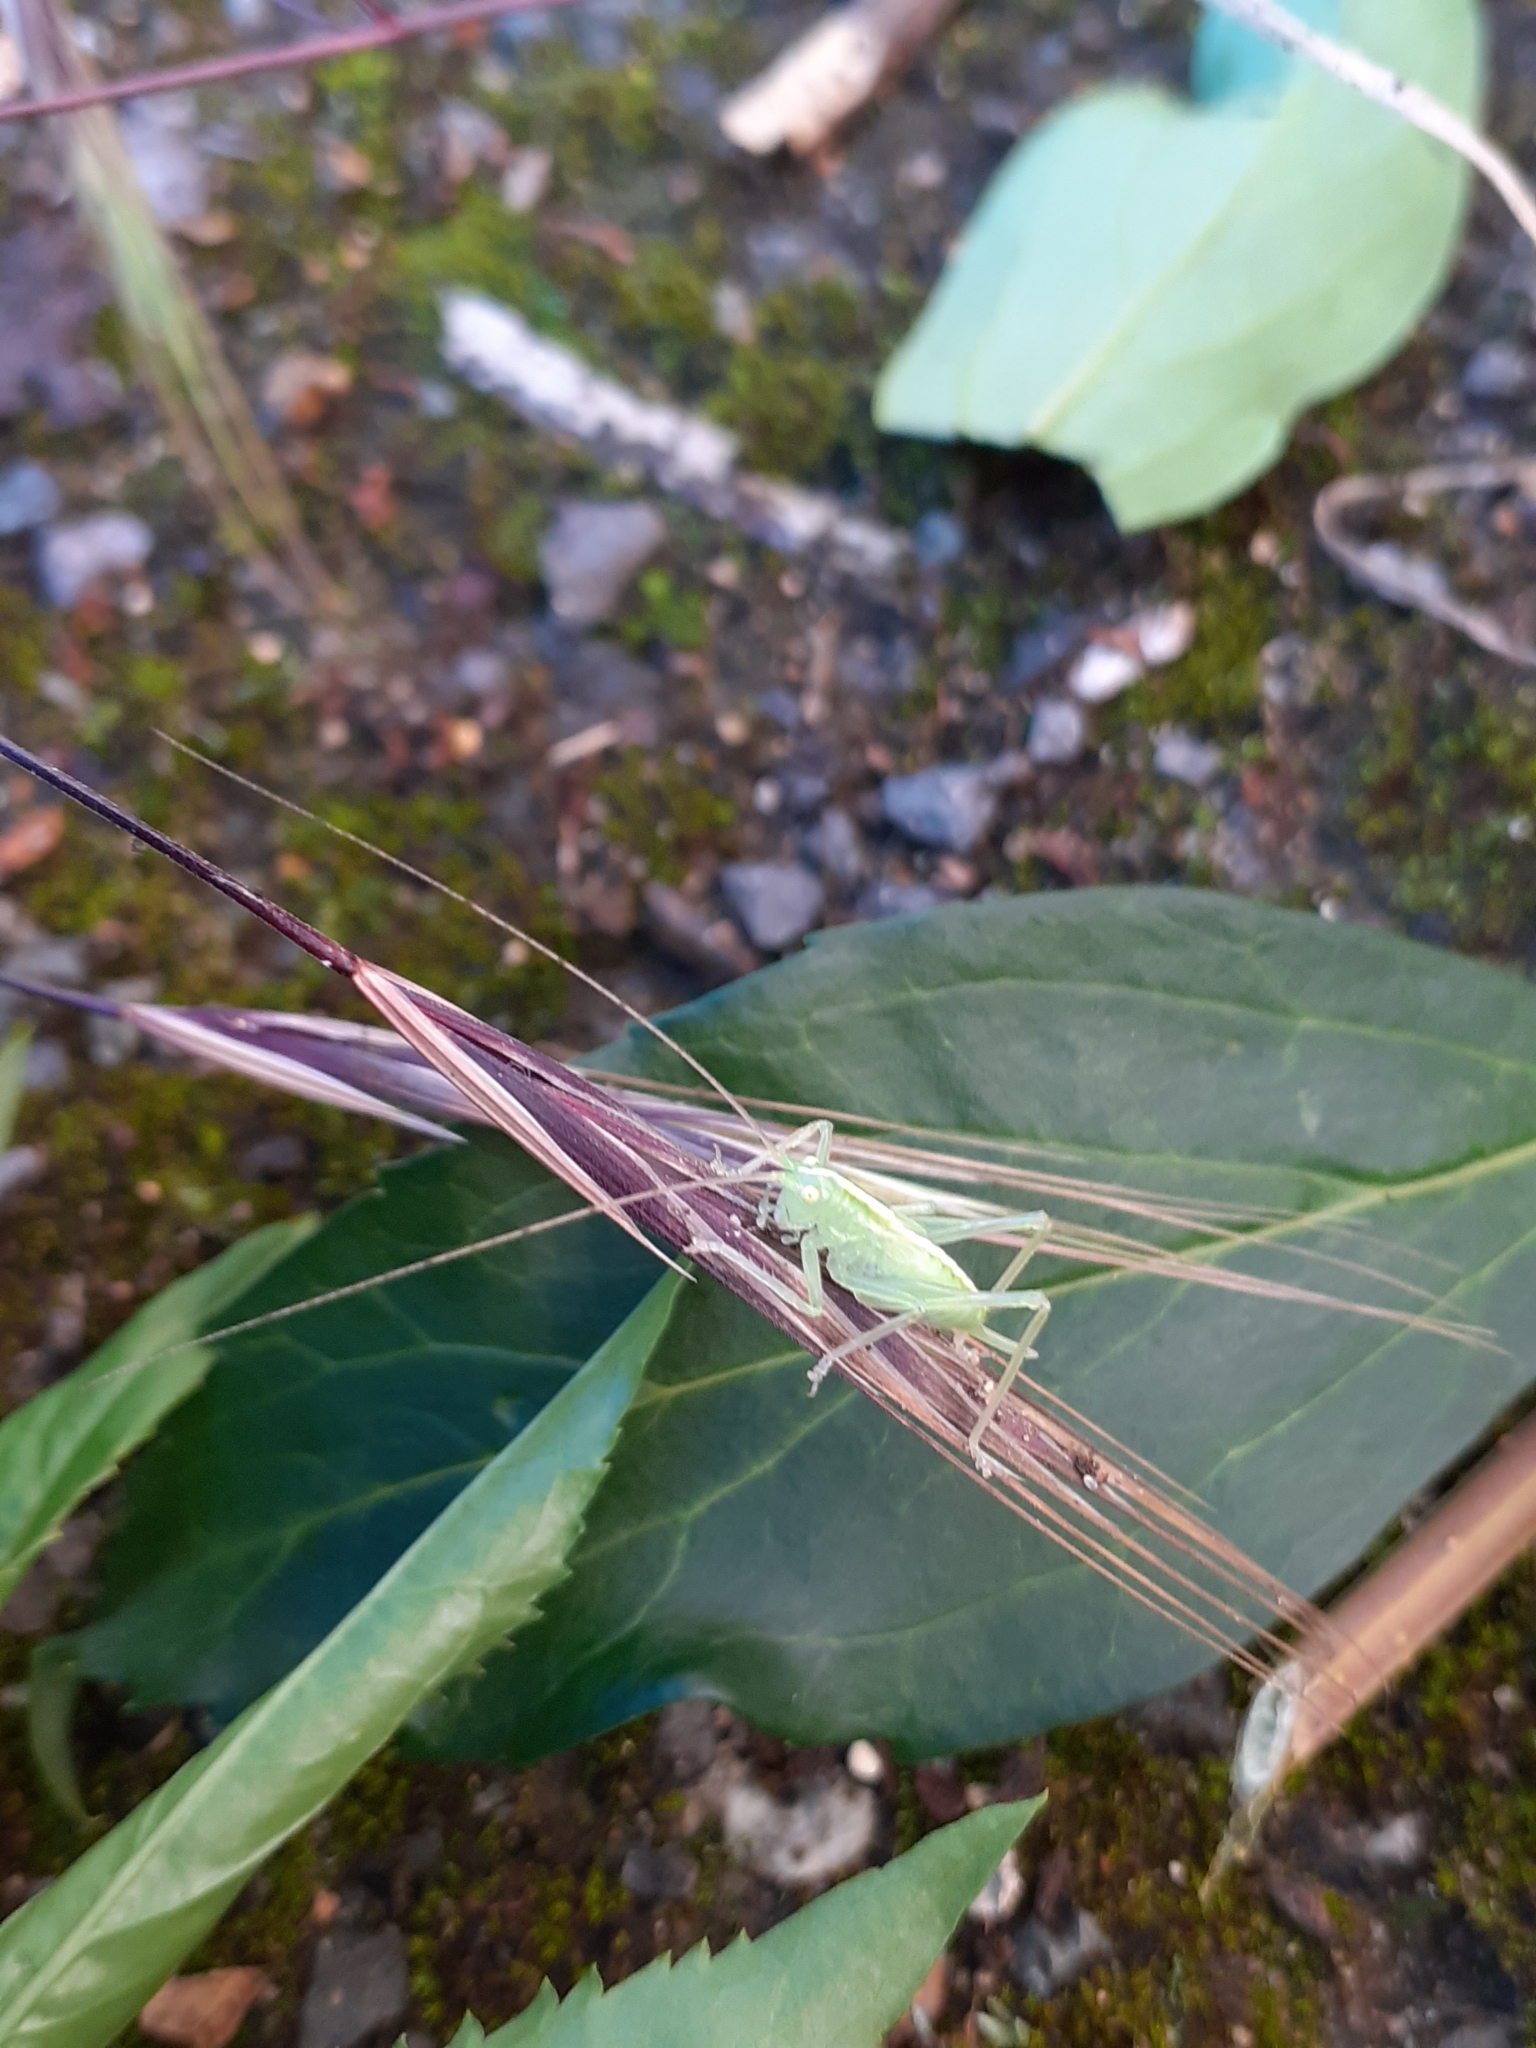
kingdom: Animalia
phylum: Arthropoda
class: Insecta
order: Orthoptera
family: Tettigoniidae
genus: Meconema
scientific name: Meconema thalassinum
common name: Oak bush-cricket
